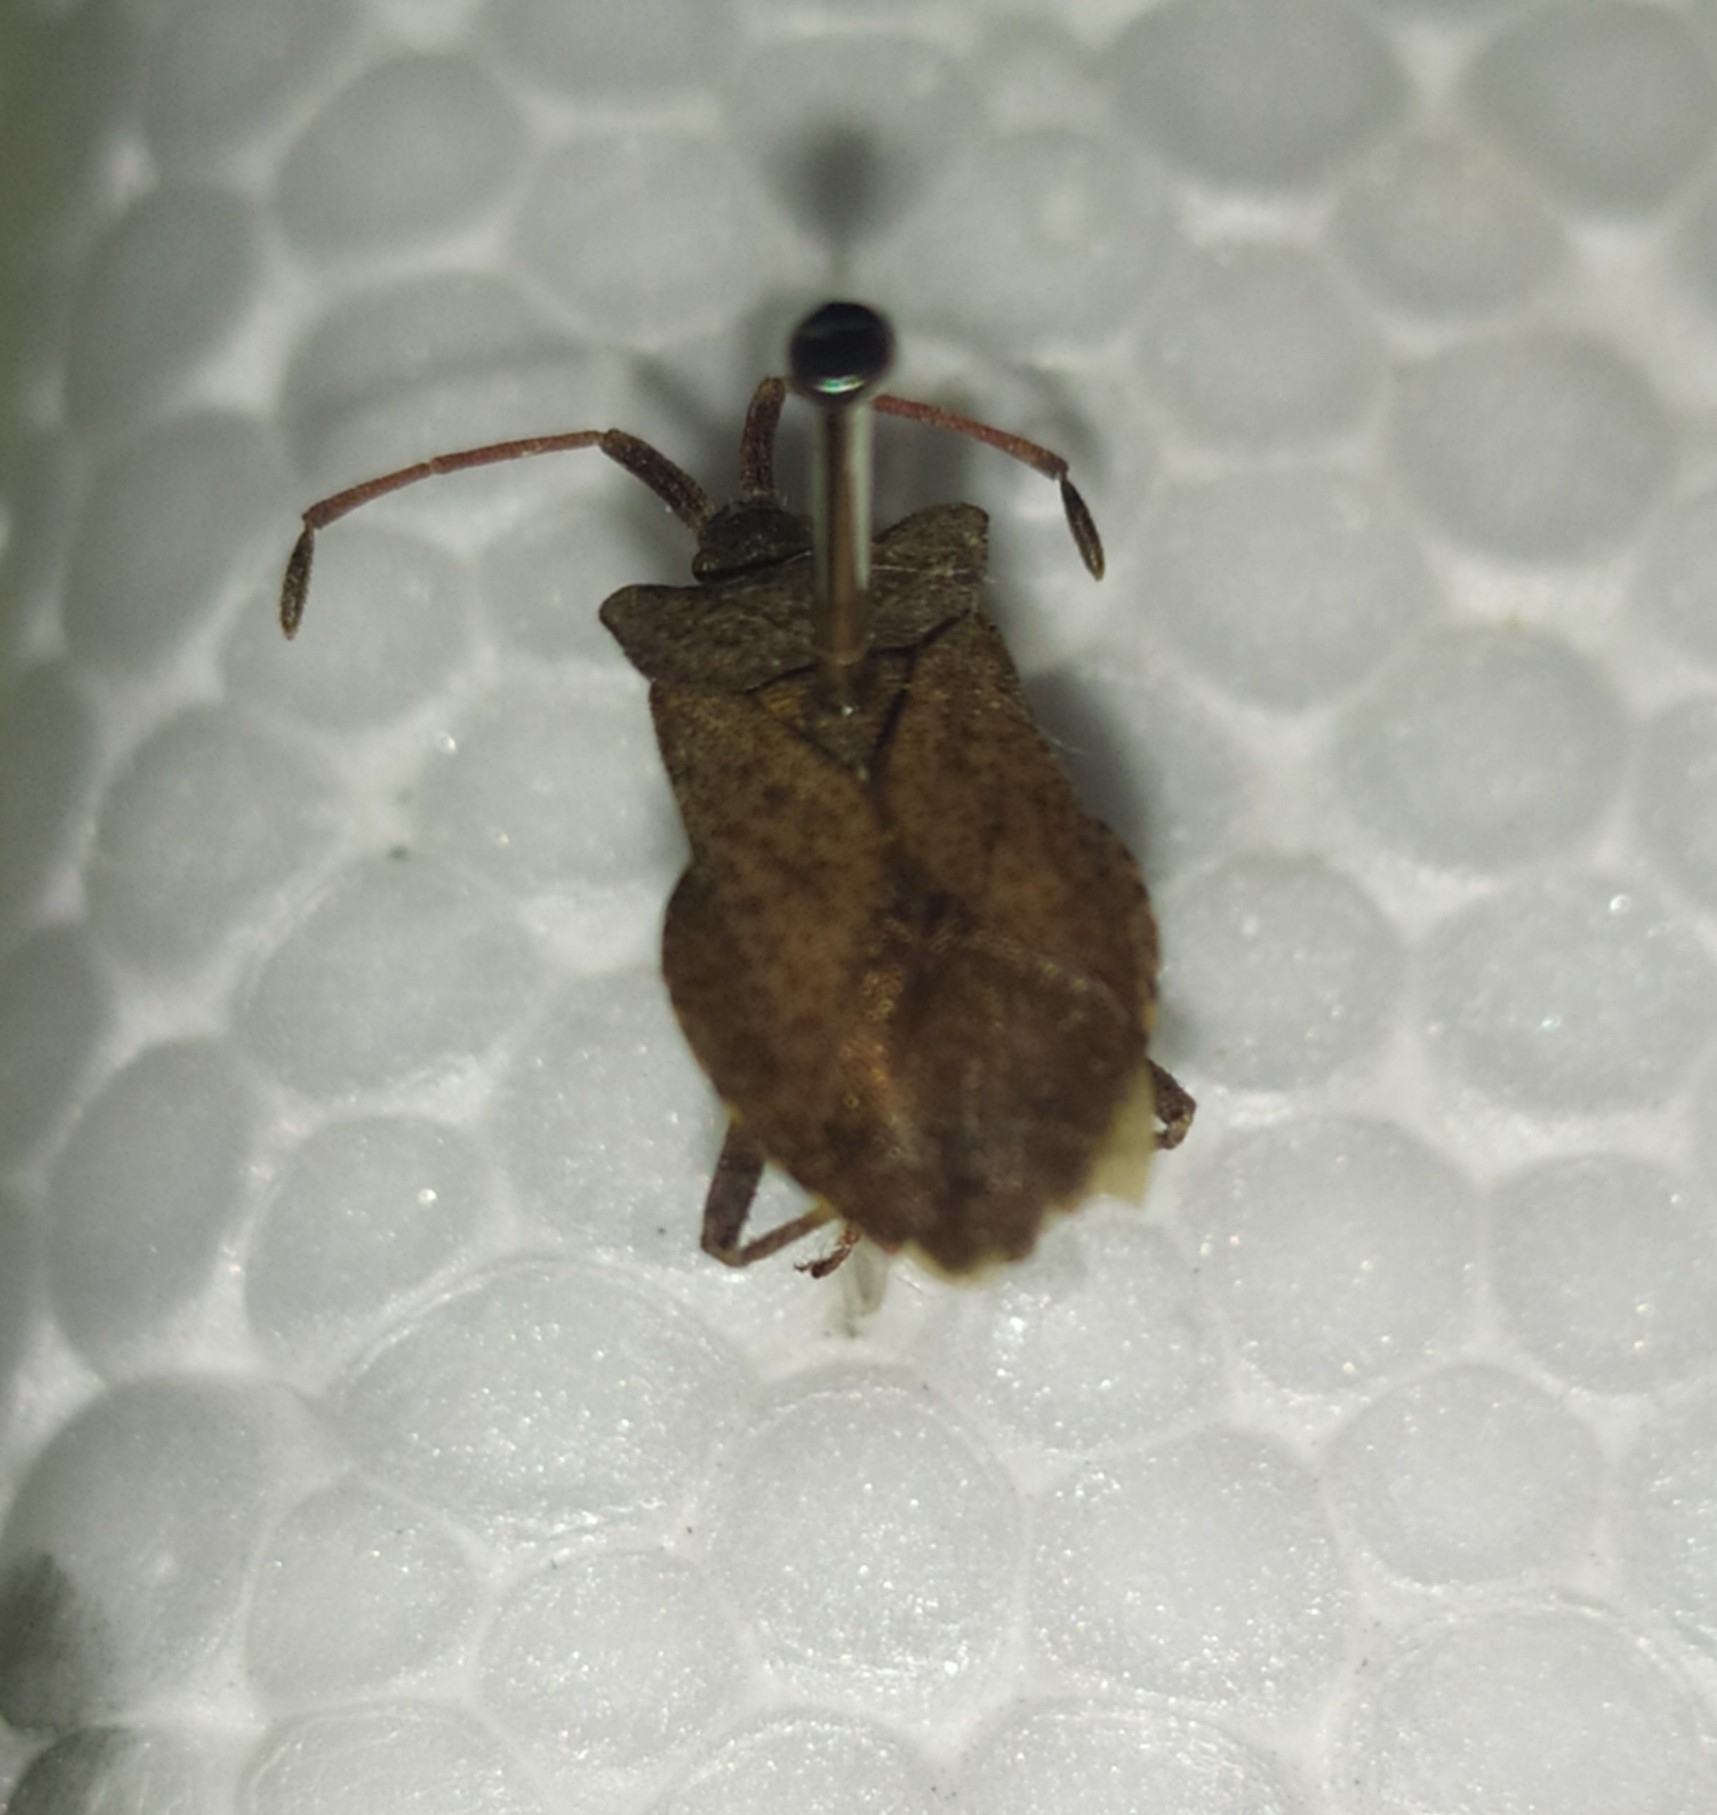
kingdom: Animalia
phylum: Arthropoda
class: Insecta
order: Hemiptera
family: Coreidae
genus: Coreus
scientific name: Coreus marginatus
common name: Dock bug
